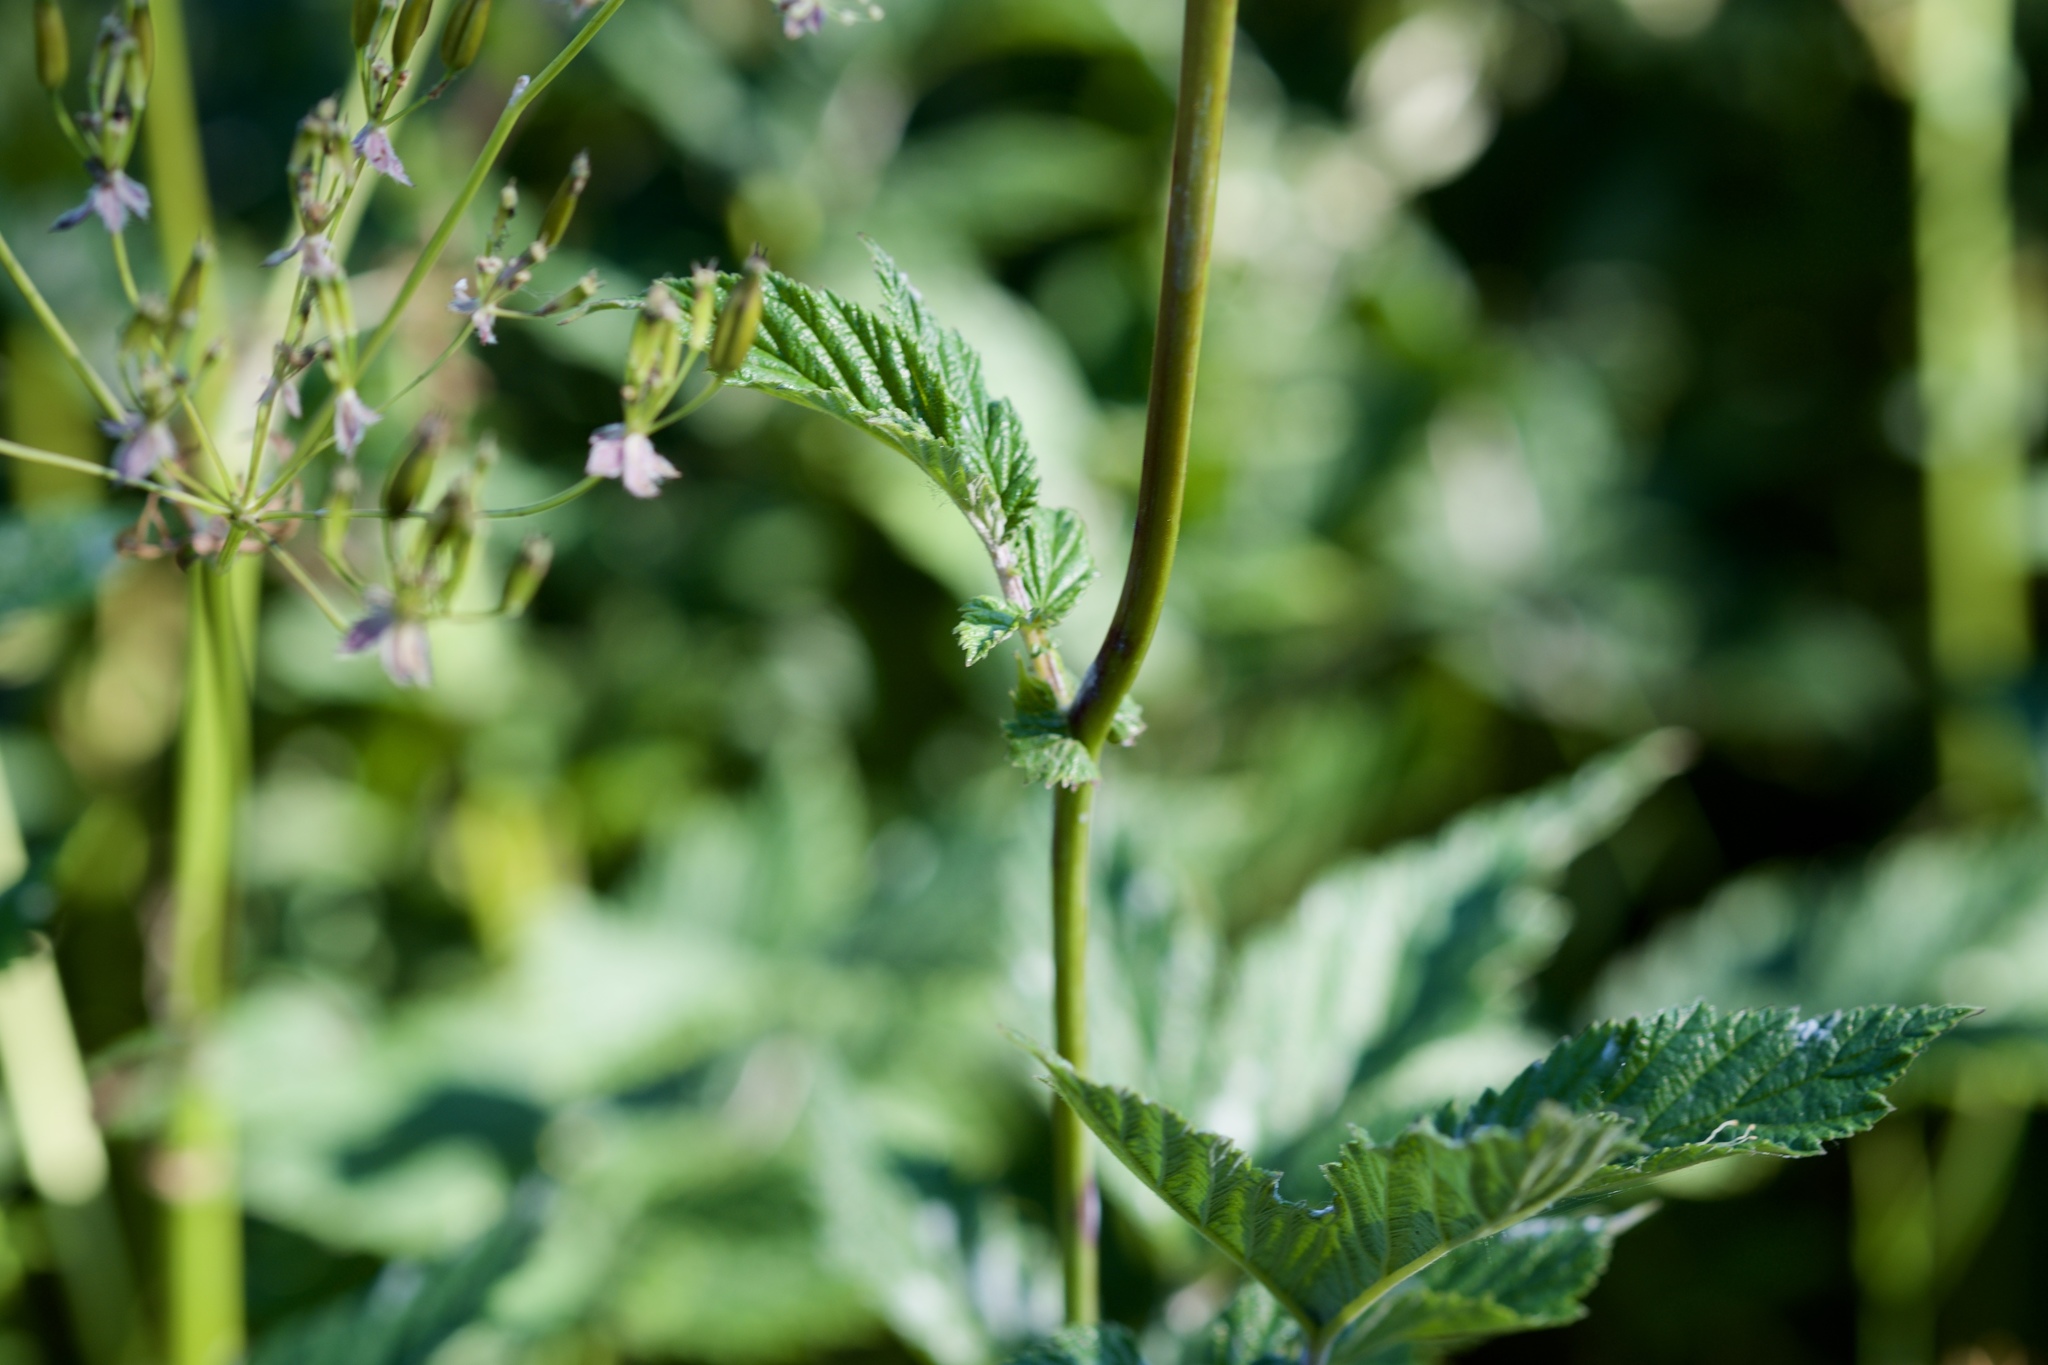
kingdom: Plantae
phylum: Tracheophyta
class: Magnoliopsida
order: Rosales
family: Rosaceae
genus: Filipendula
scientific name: Filipendula ulmaria
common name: Meadowsweet
